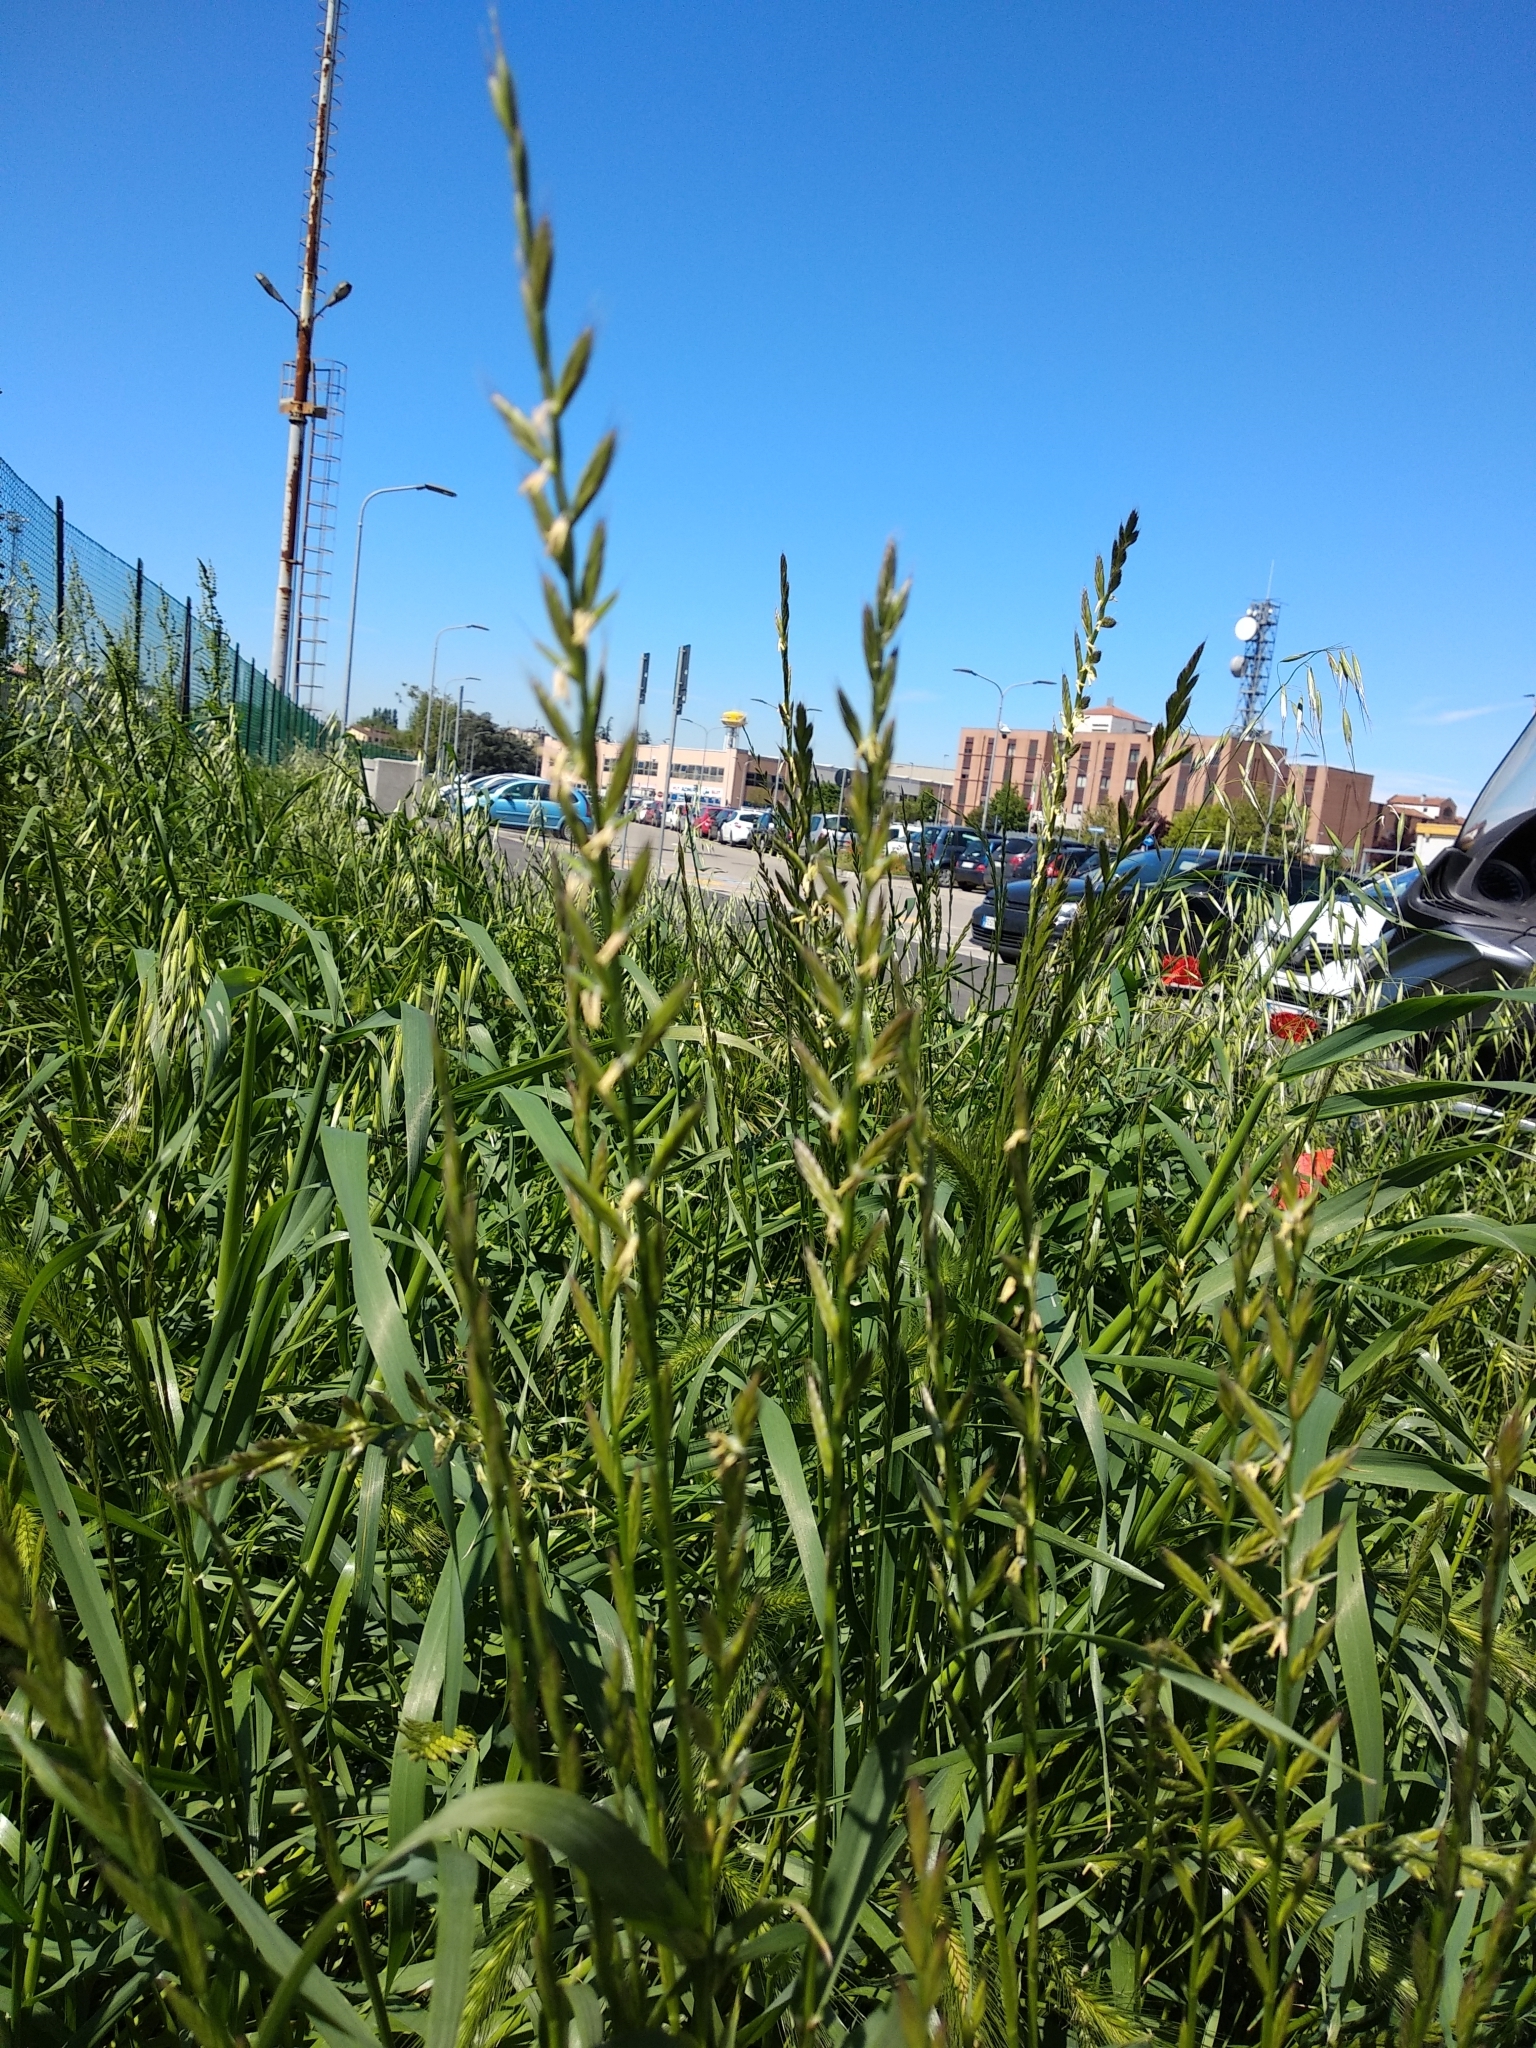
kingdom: Plantae
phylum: Tracheophyta
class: Liliopsida
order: Poales
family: Poaceae
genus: Lolium
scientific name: Lolium multiflorum
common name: Annual ryegrass
